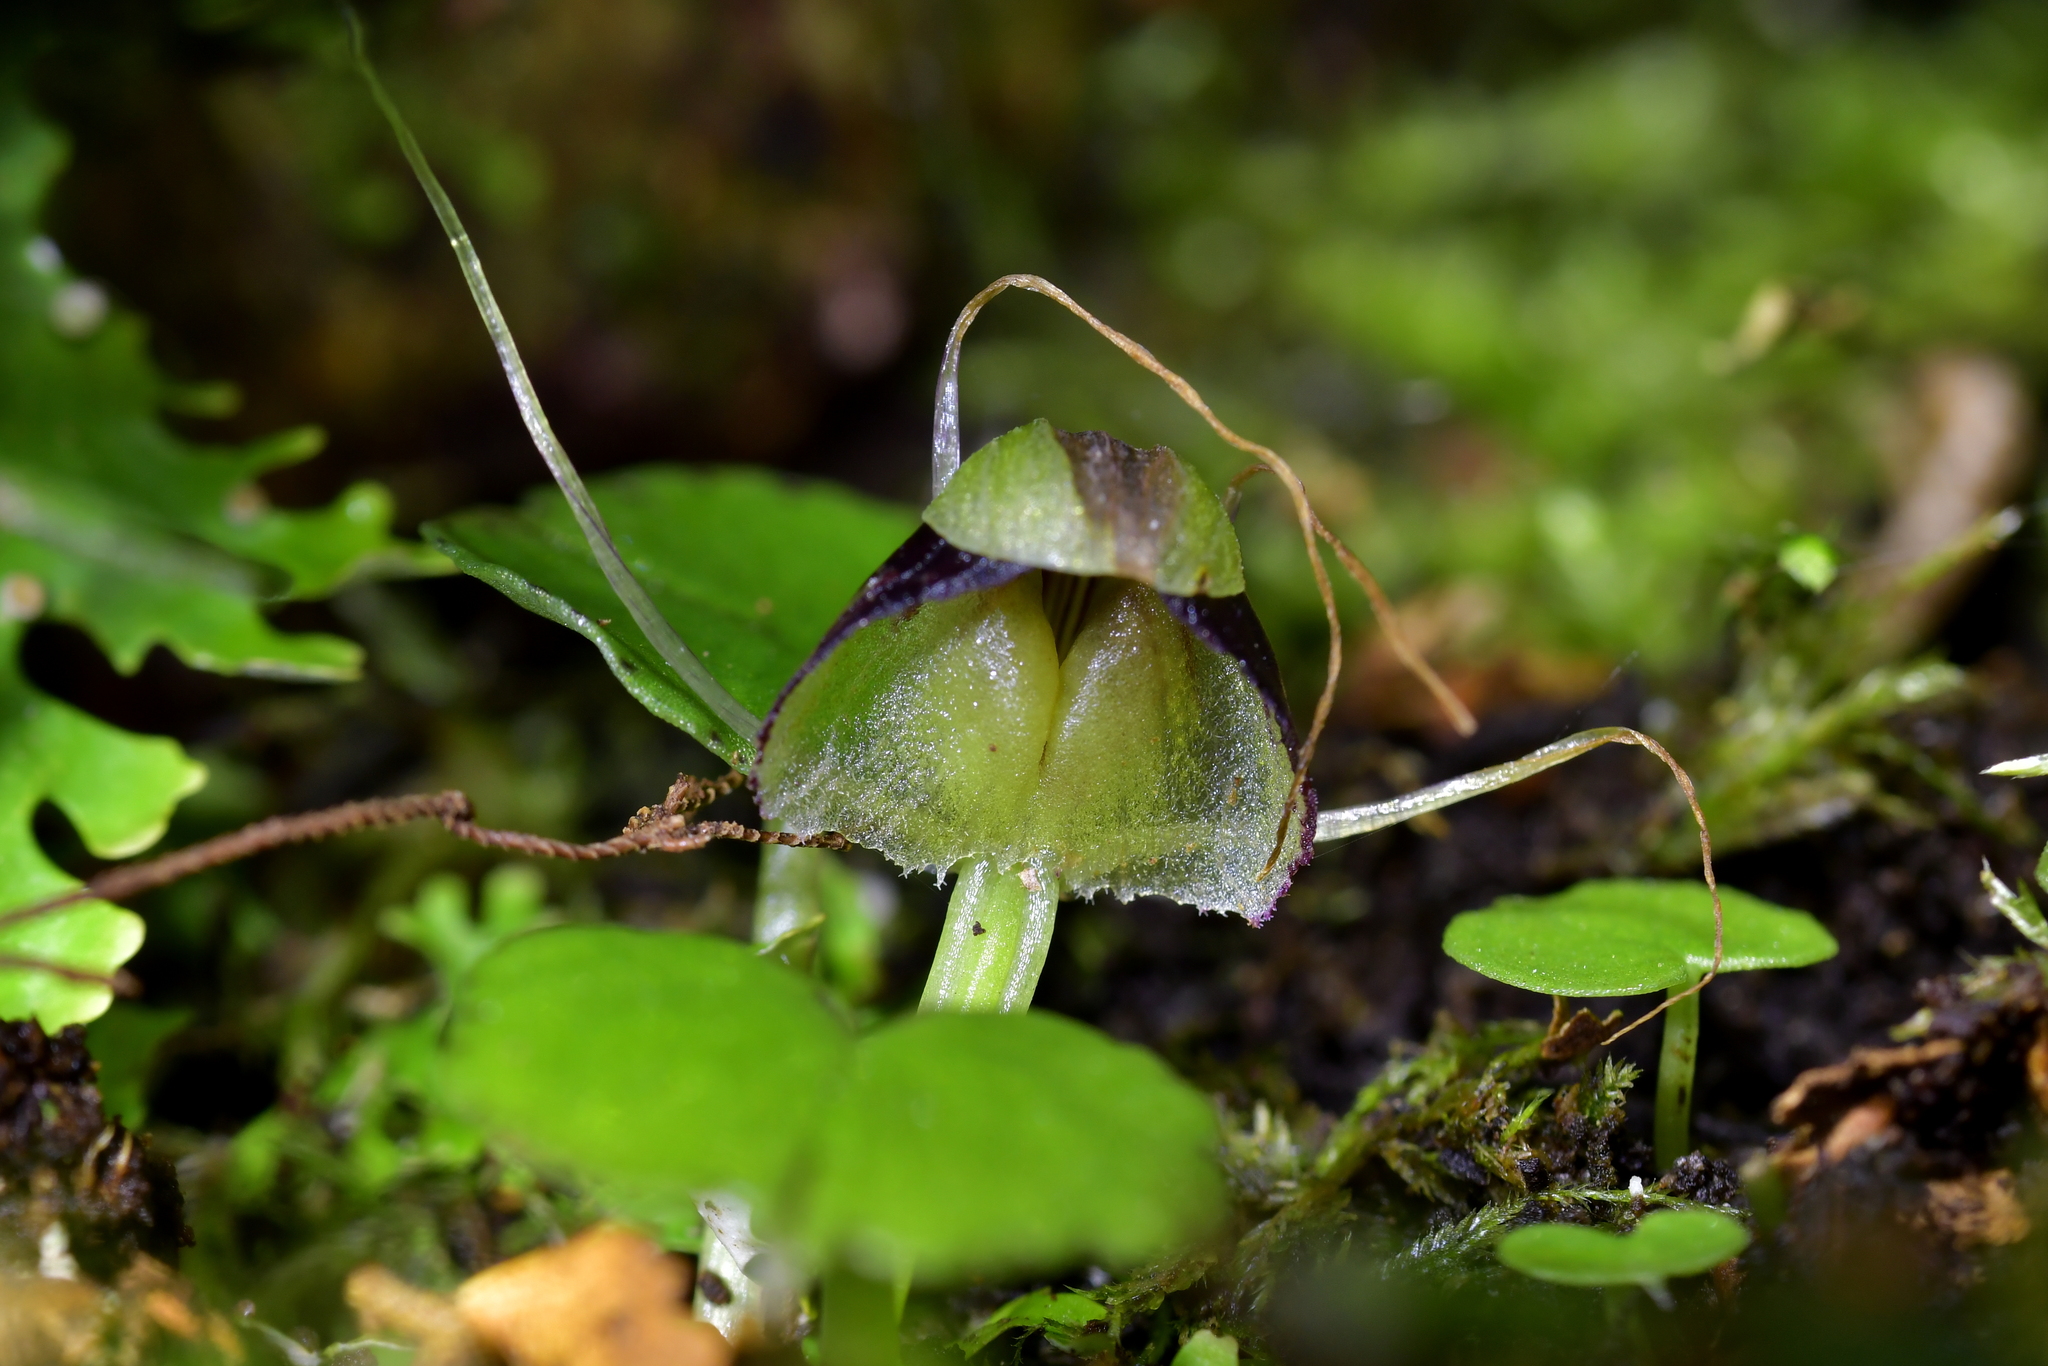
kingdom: Plantae
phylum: Tracheophyta
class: Liliopsida
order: Asparagales
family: Orchidaceae
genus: Corybas
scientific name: Corybas vitreus
